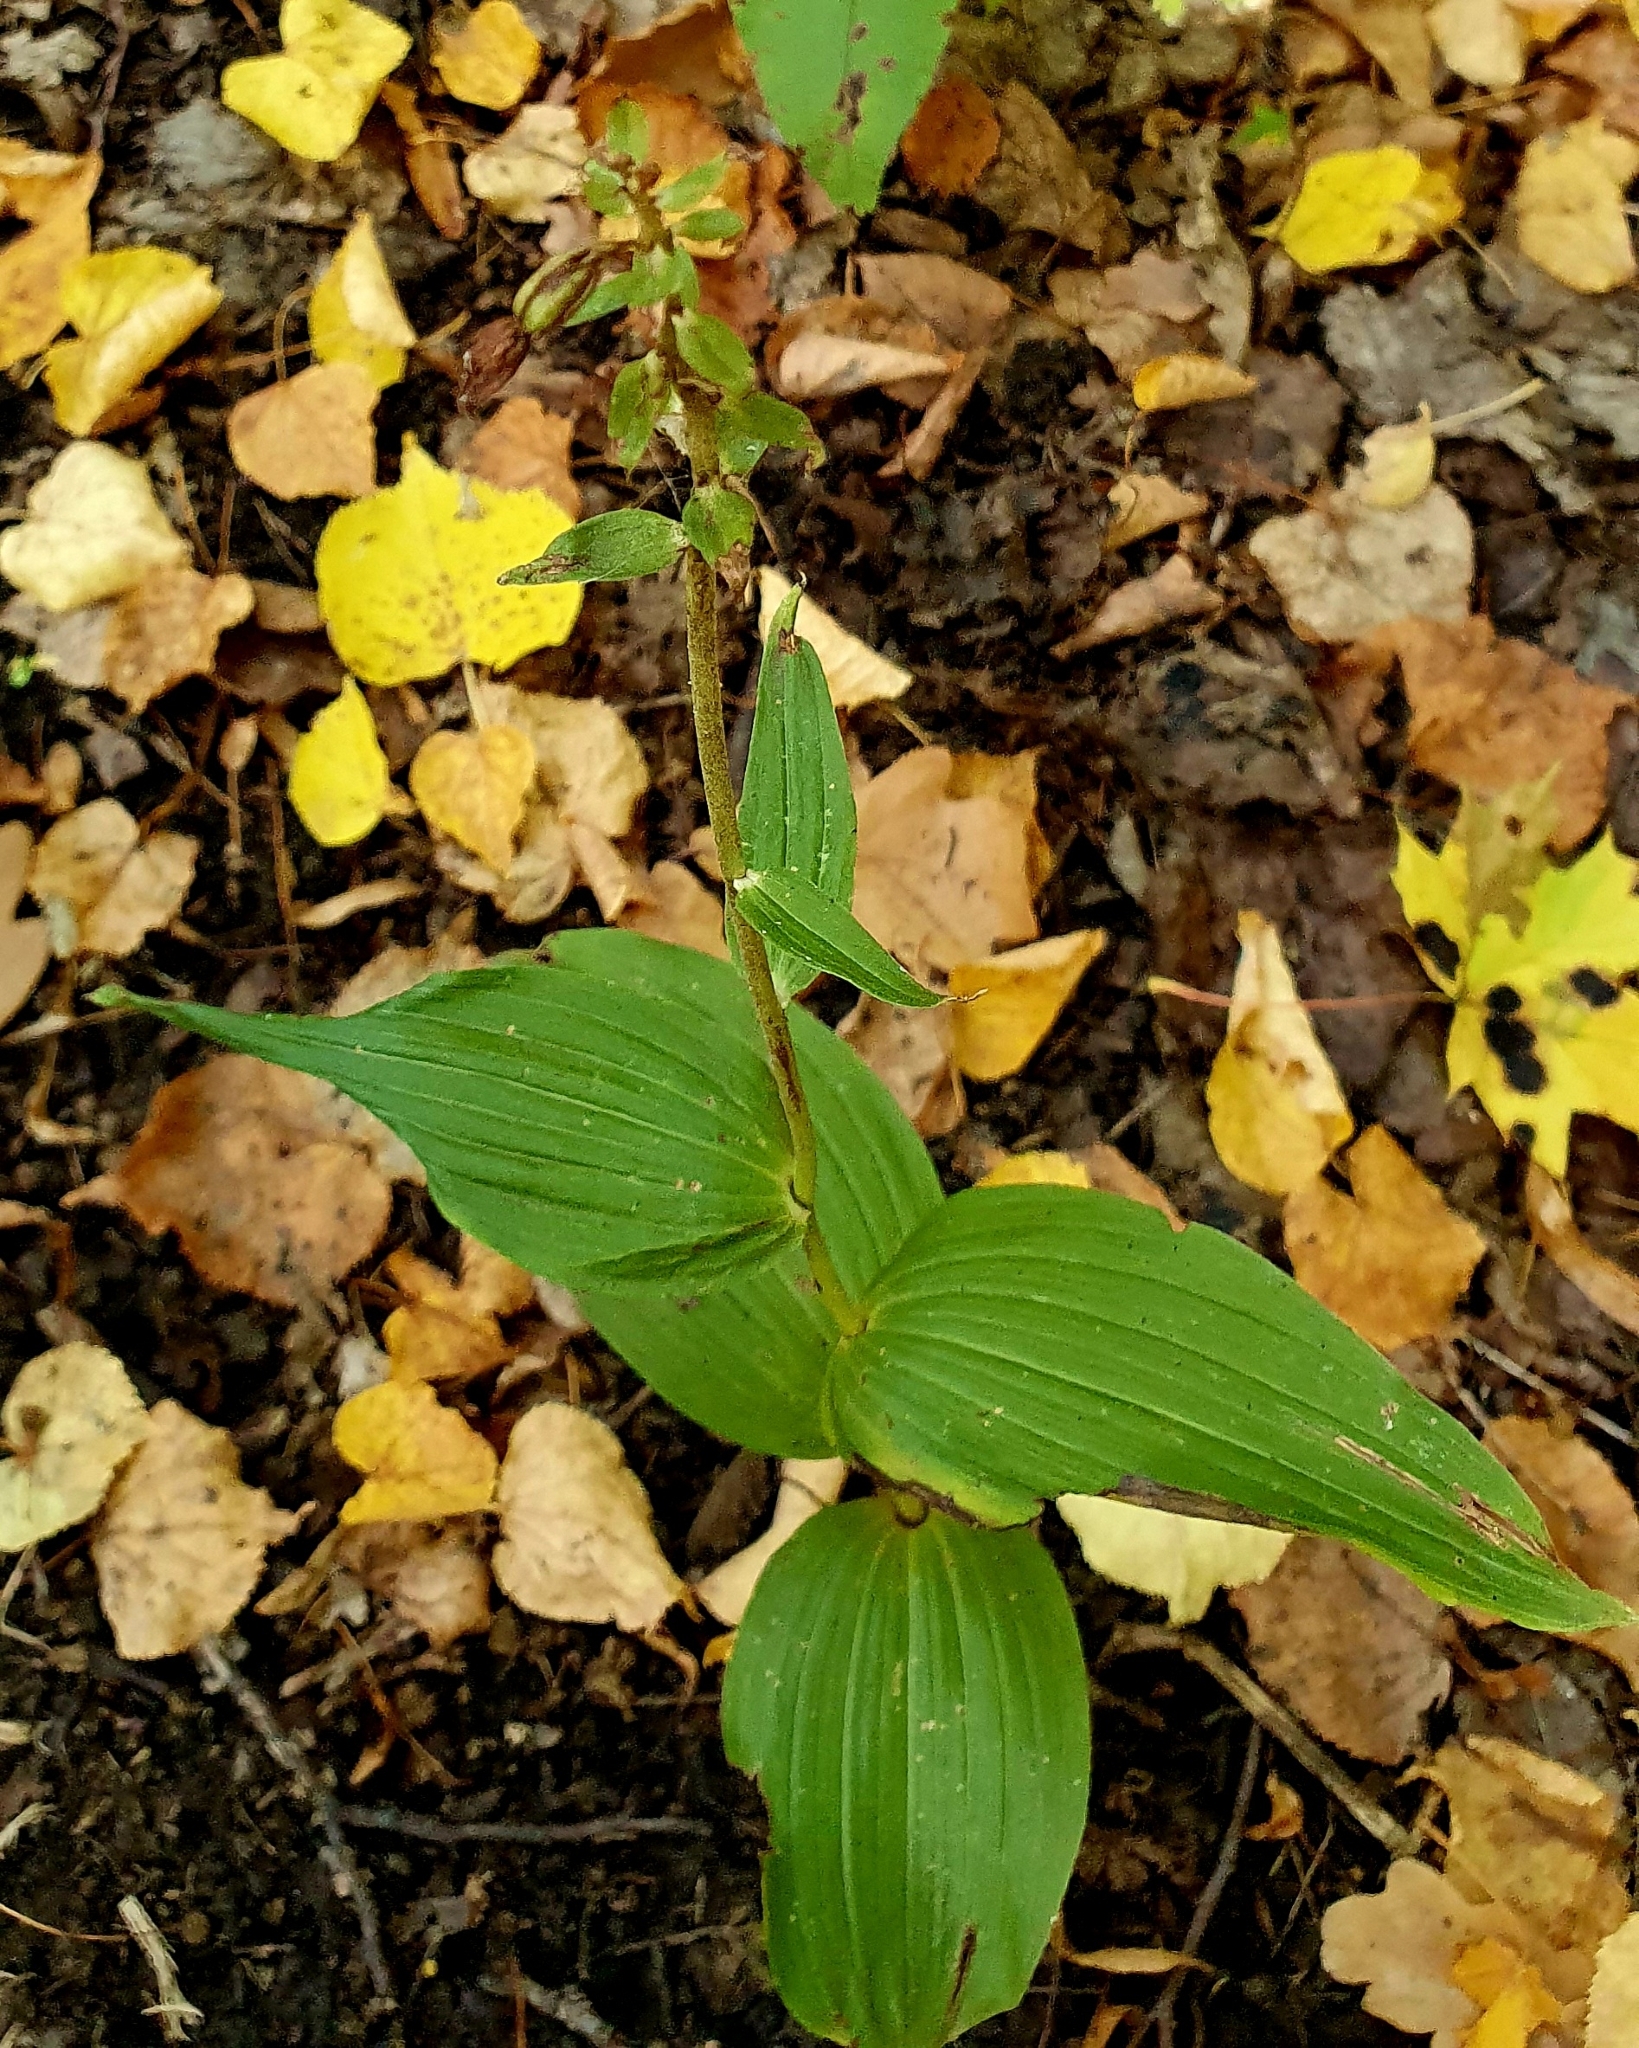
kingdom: Plantae
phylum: Tracheophyta
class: Liliopsida
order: Asparagales
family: Orchidaceae
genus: Epipactis
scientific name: Epipactis helleborine
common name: Broad-leaved helleborine
